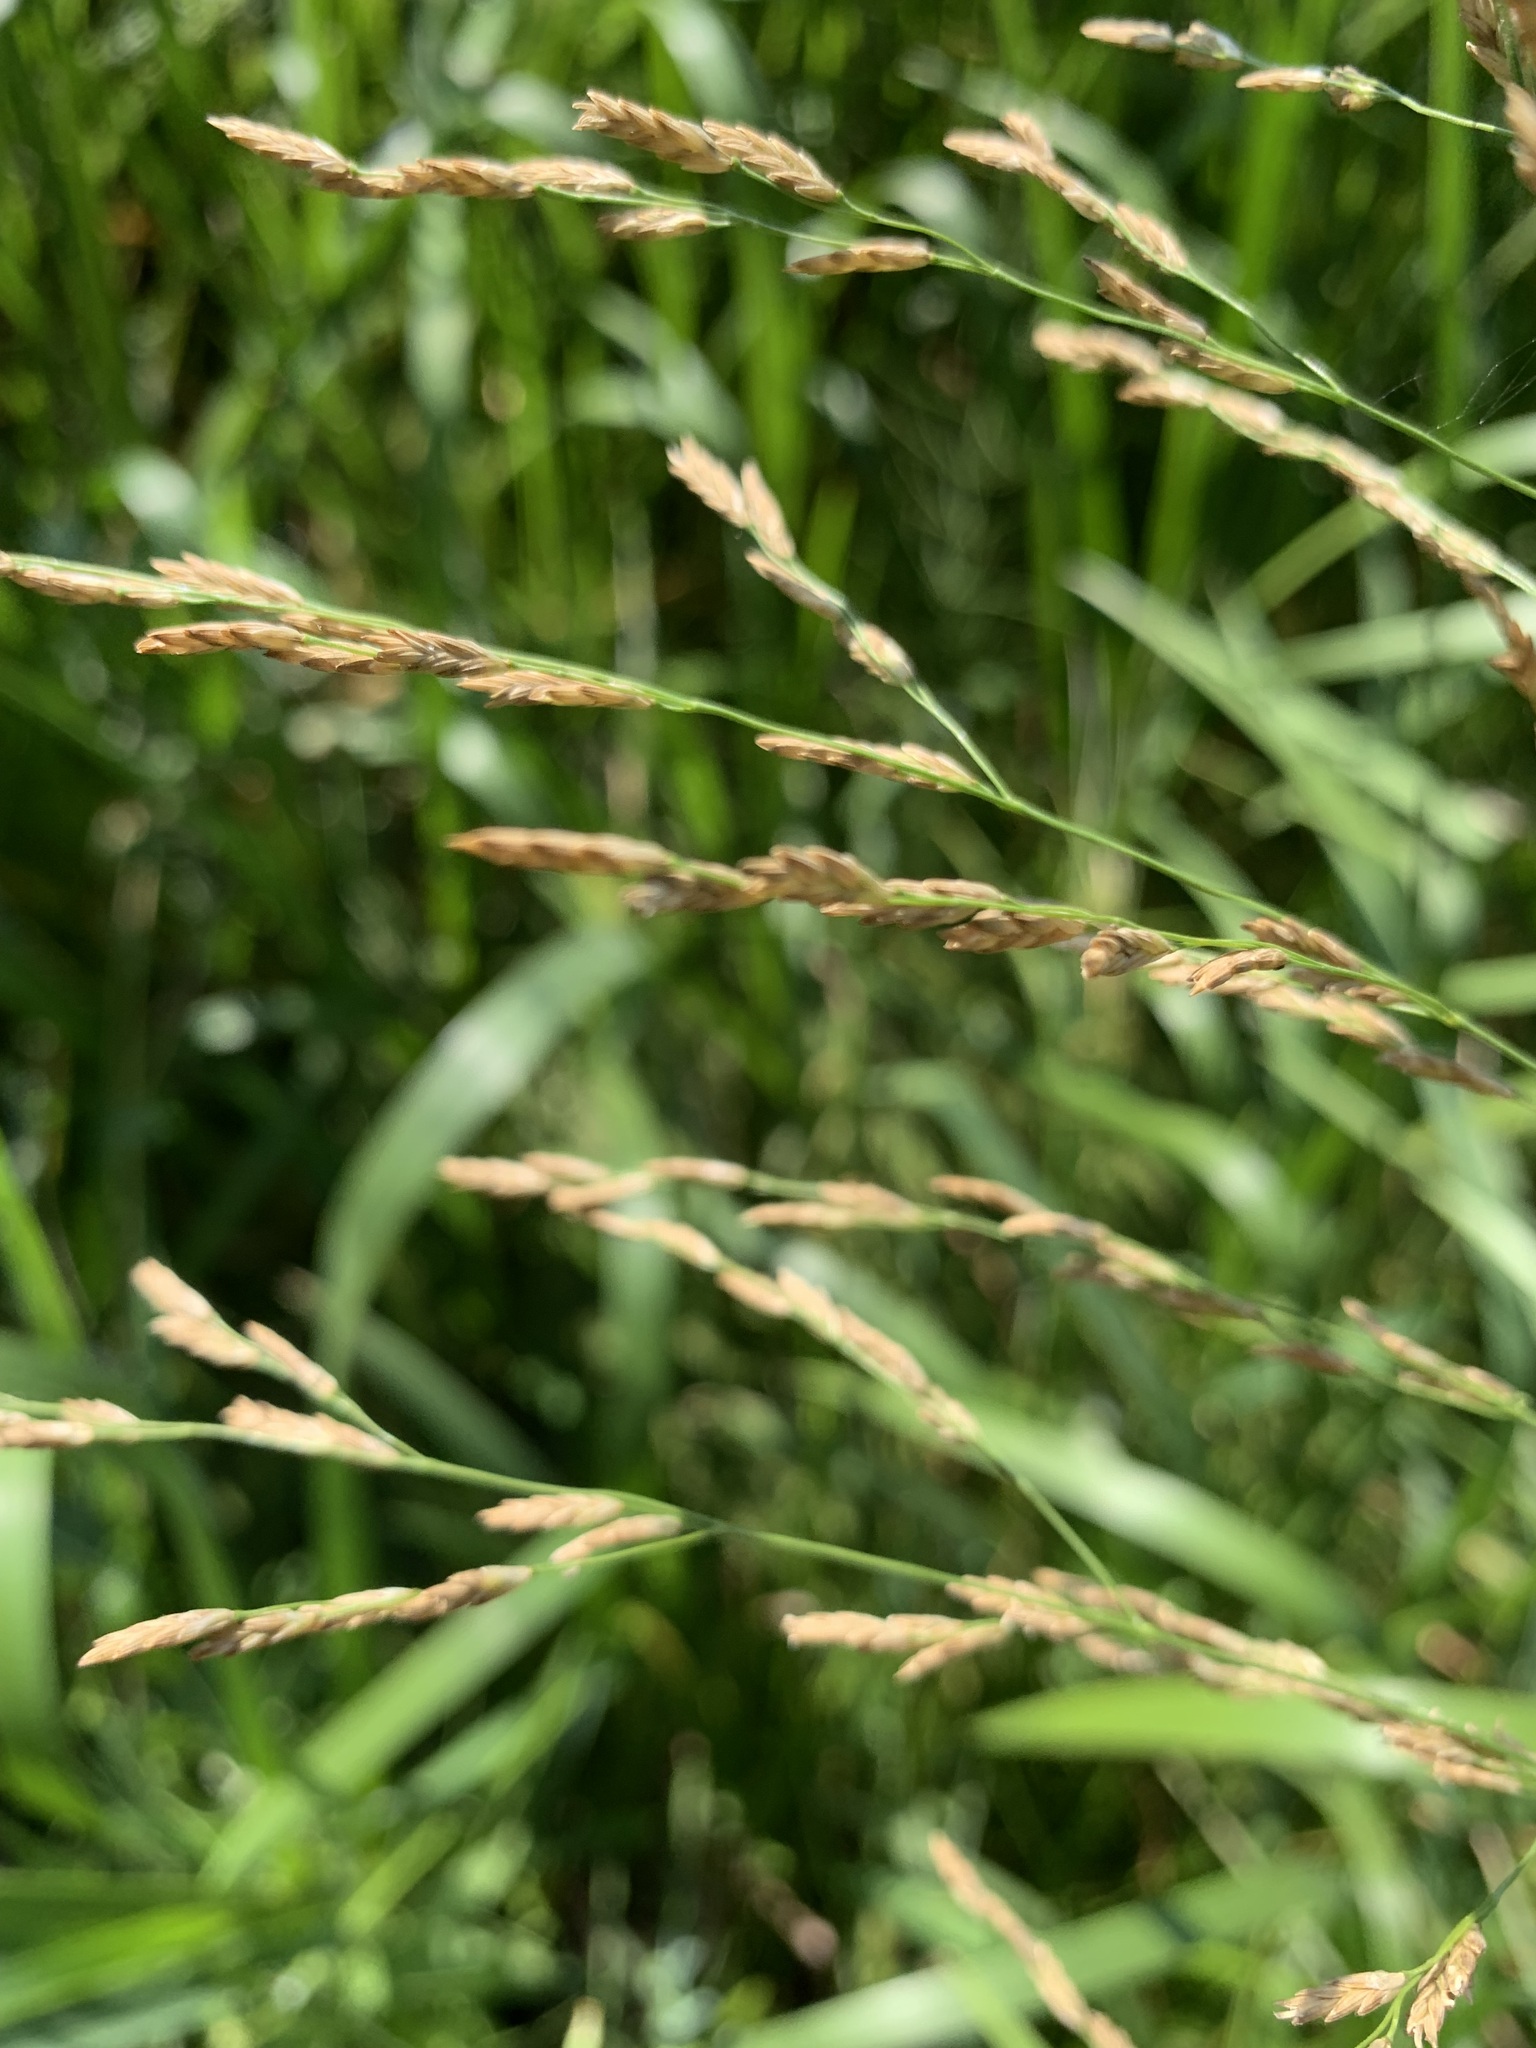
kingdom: Plantae
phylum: Tracheophyta
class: Liliopsida
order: Poales
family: Poaceae
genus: Glyceria
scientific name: Glyceria maxima
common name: Reed mannagrass
